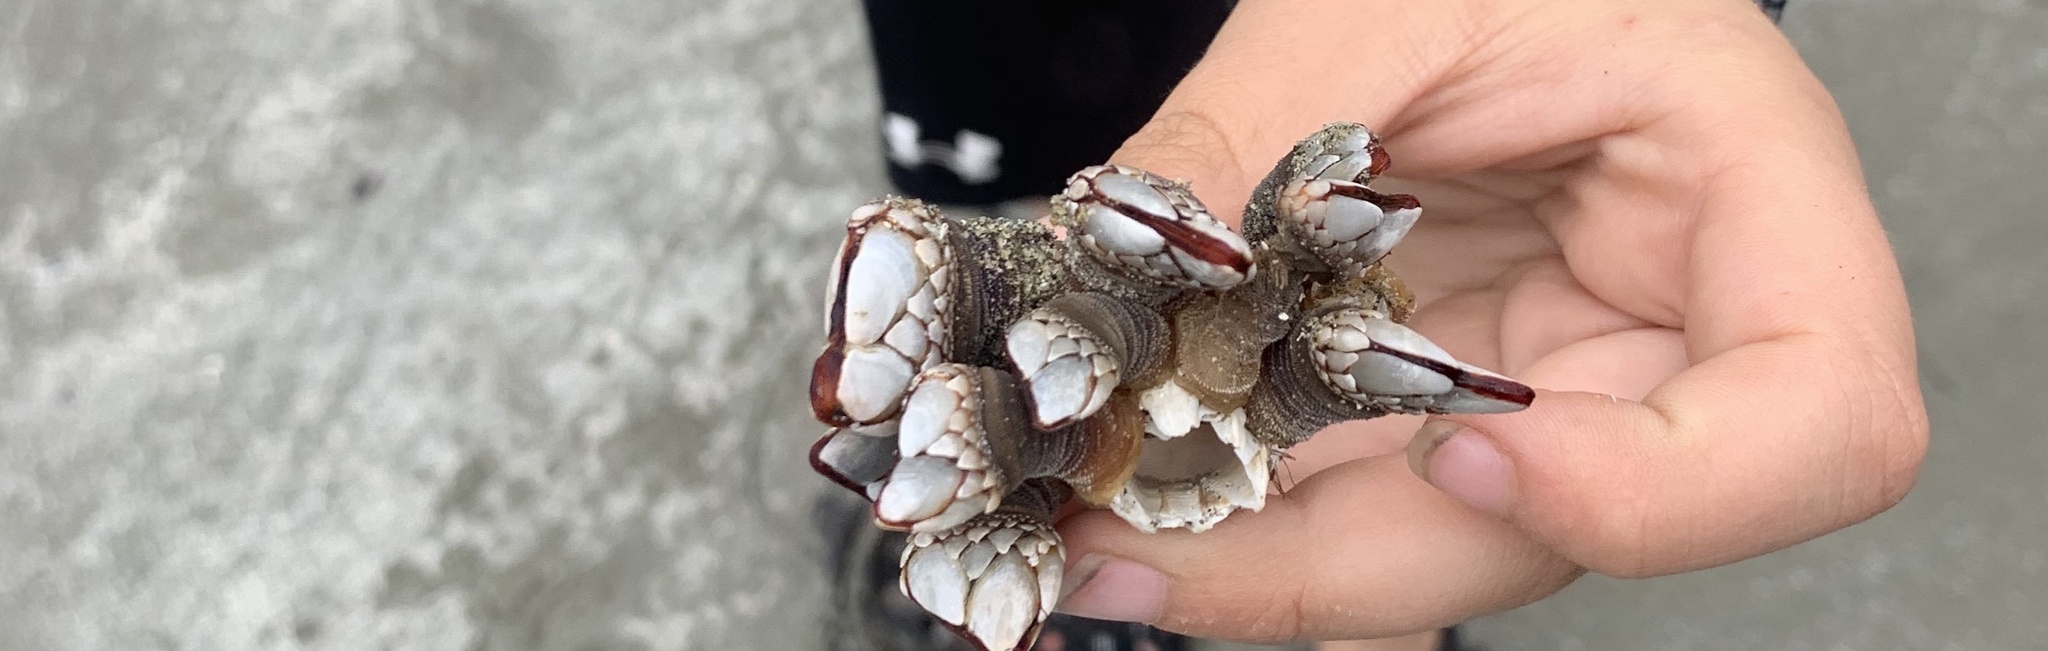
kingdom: Animalia
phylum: Arthropoda
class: Maxillopoda
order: Pedunculata
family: Pollicipedidae
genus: Pollicipes
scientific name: Pollicipes polymerus
